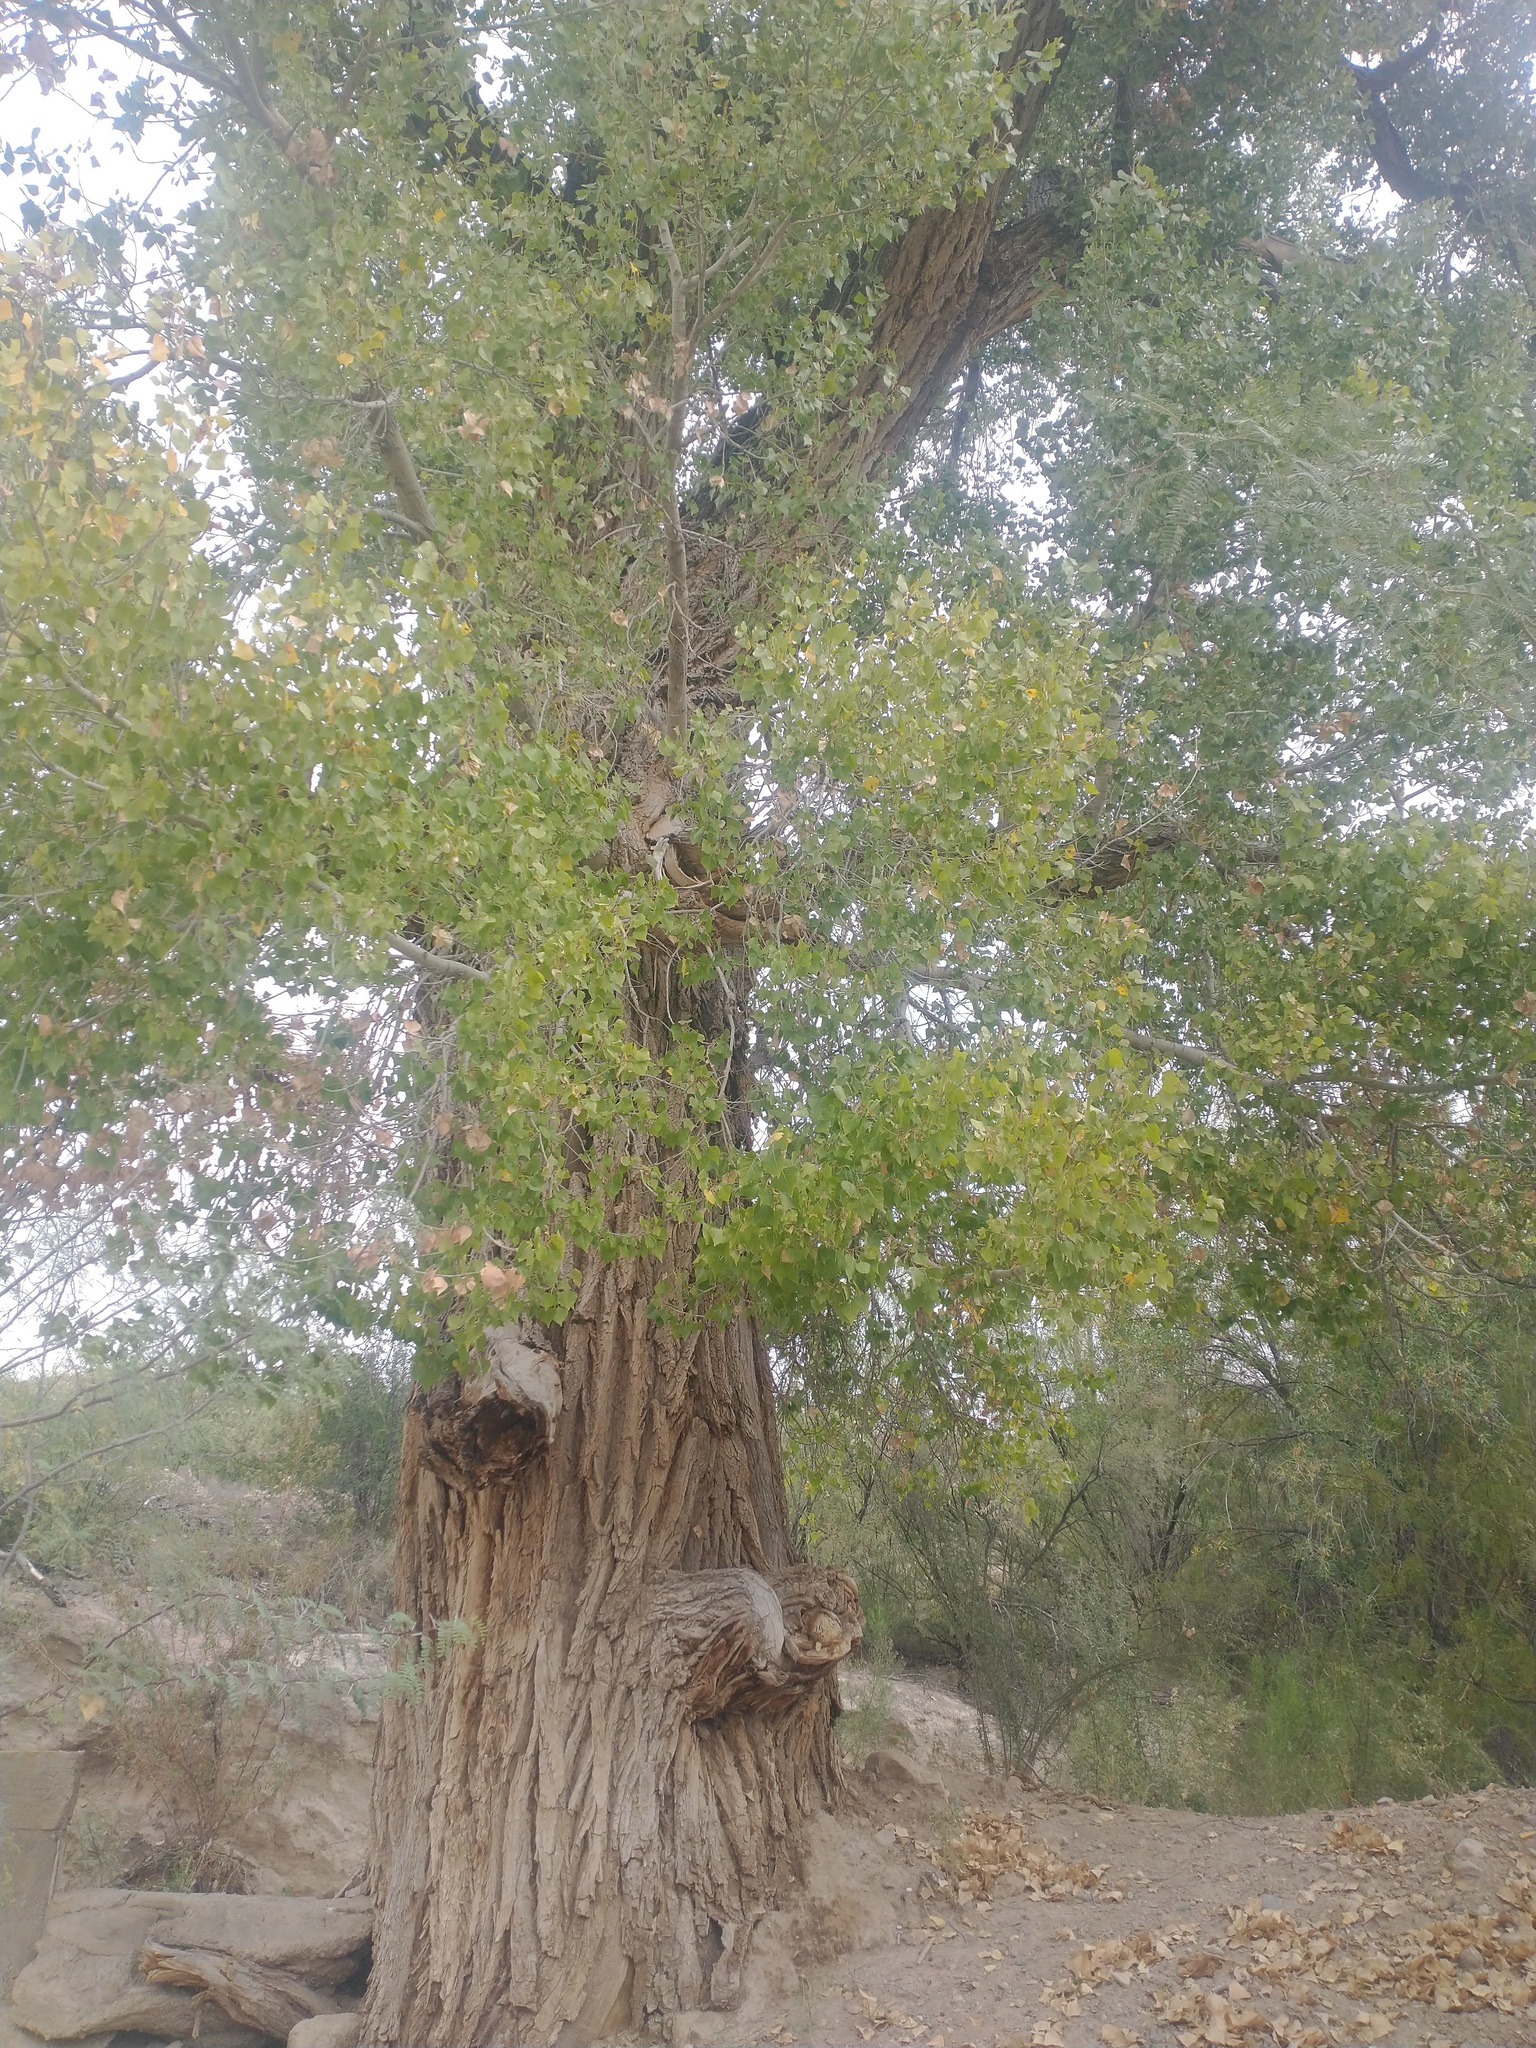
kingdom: Plantae
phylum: Tracheophyta
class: Magnoliopsida
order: Malpighiales
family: Salicaceae
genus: Populus
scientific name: Populus fremontii
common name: Fremont's cottonwood
